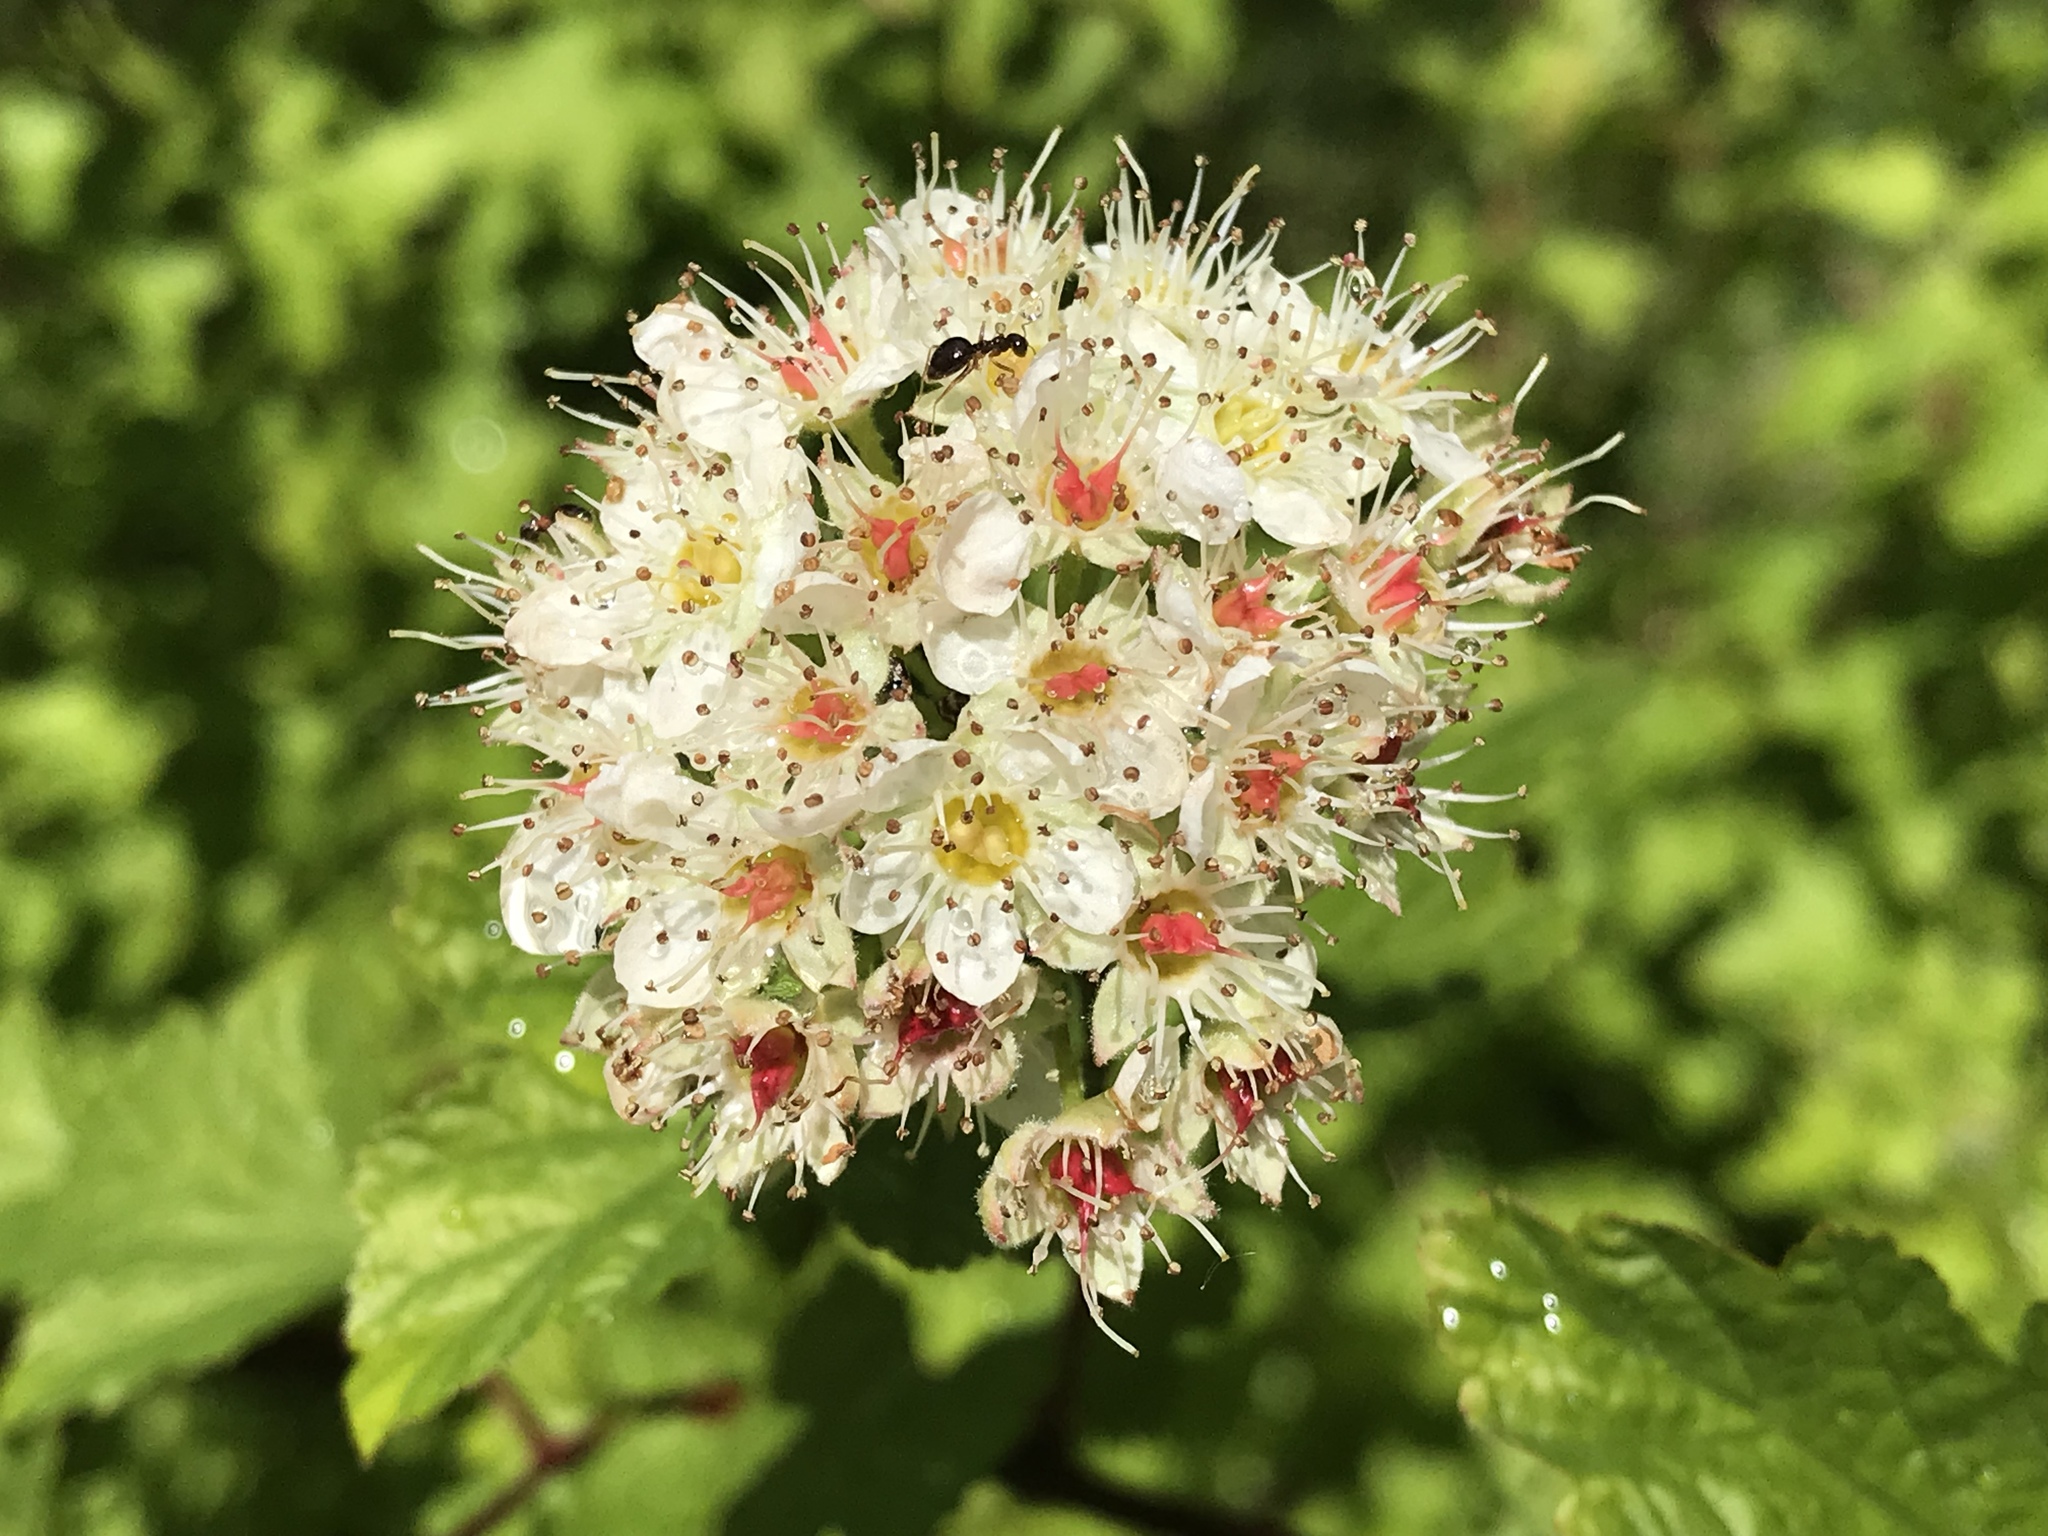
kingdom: Plantae
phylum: Tracheophyta
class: Magnoliopsida
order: Rosales
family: Rosaceae
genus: Physocarpus
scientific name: Physocarpus capitatus
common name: Pacific ninebark
